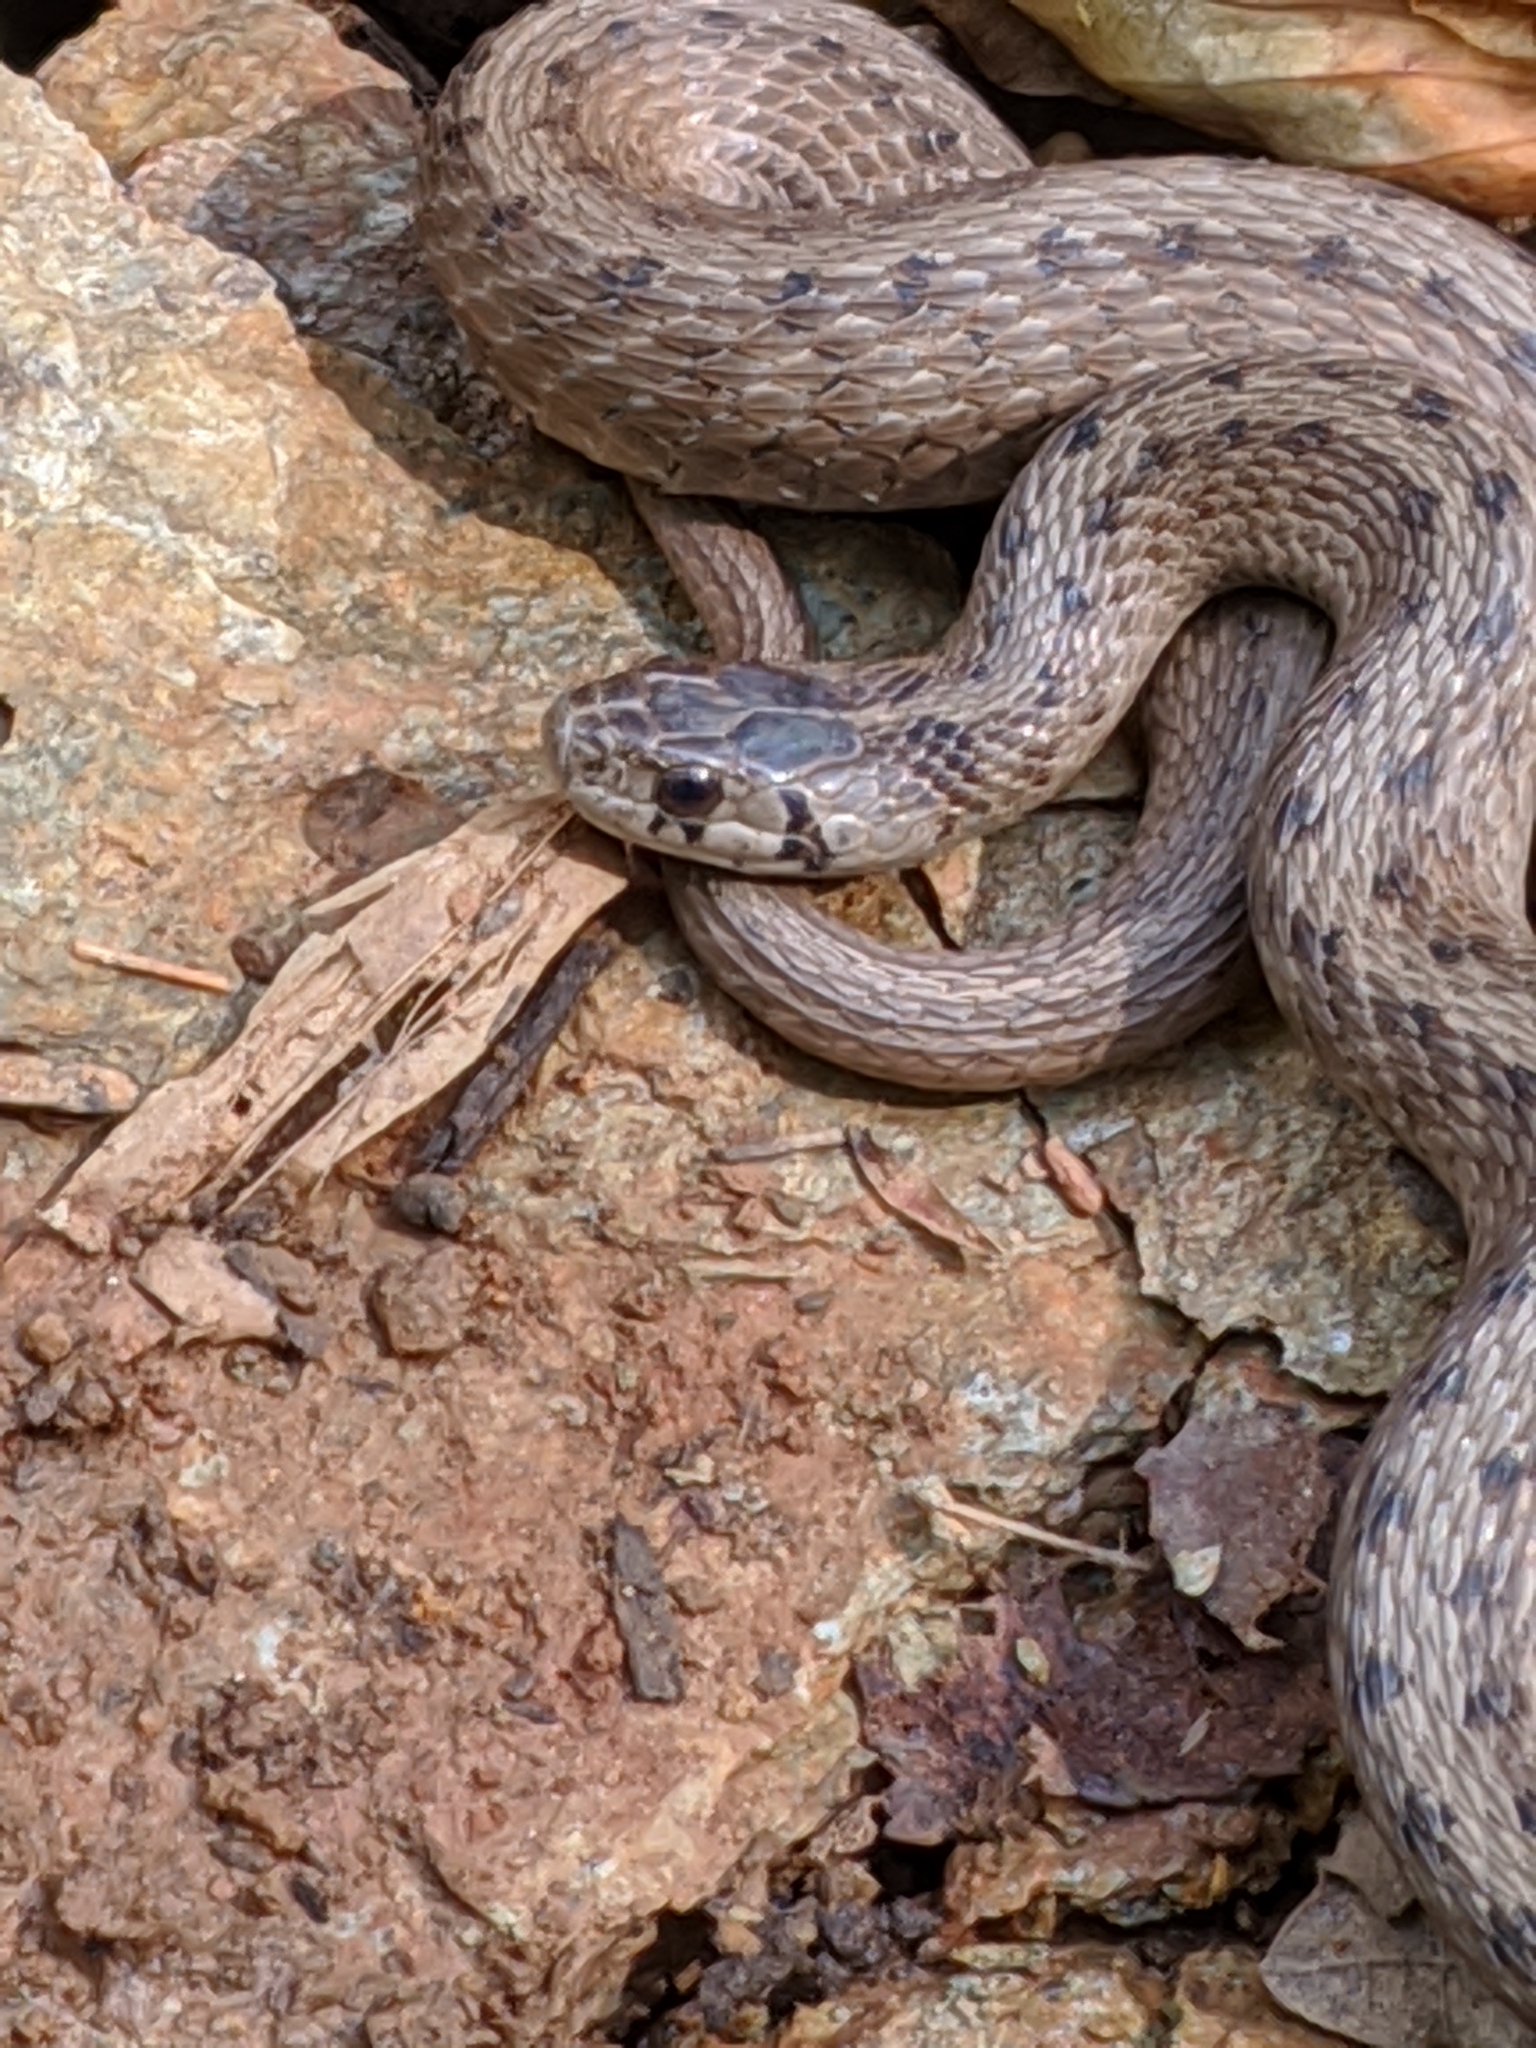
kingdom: Animalia
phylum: Chordata
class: Squamata
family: Colubridae
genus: Storeria
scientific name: Storeria dekayi
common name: (dekay’s) brown snake
